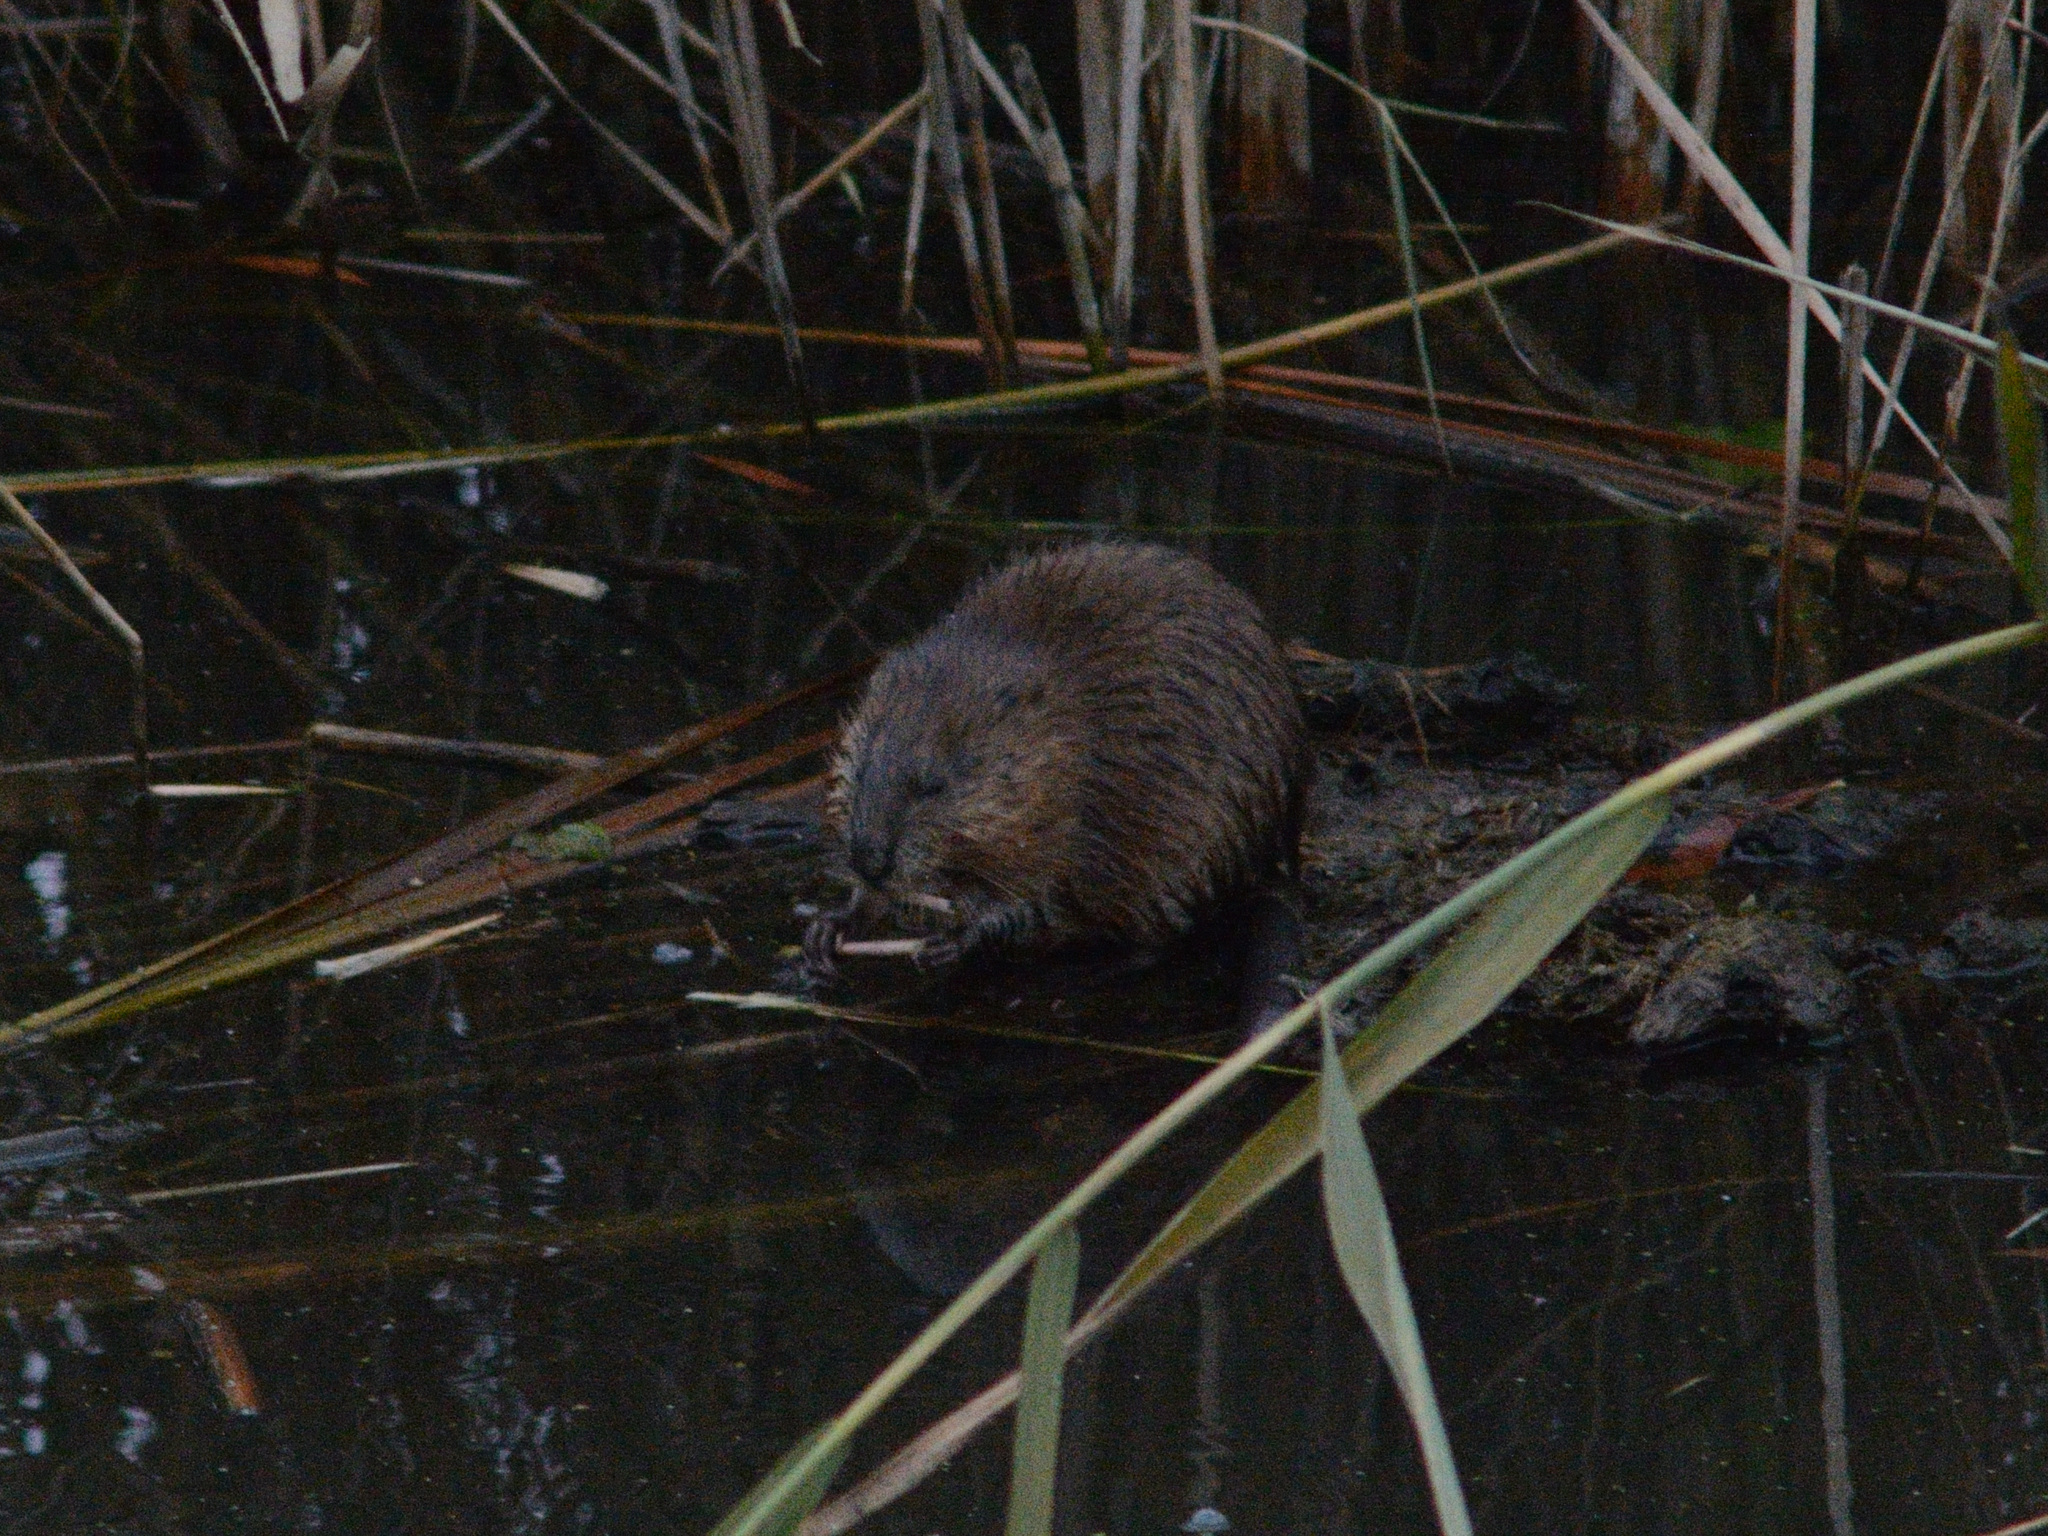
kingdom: Animalia
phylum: Chordata
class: Mammalia
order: Rodentia
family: Cricetidae
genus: Ondatra
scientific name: Ondatra zibethicus
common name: Muskrat
